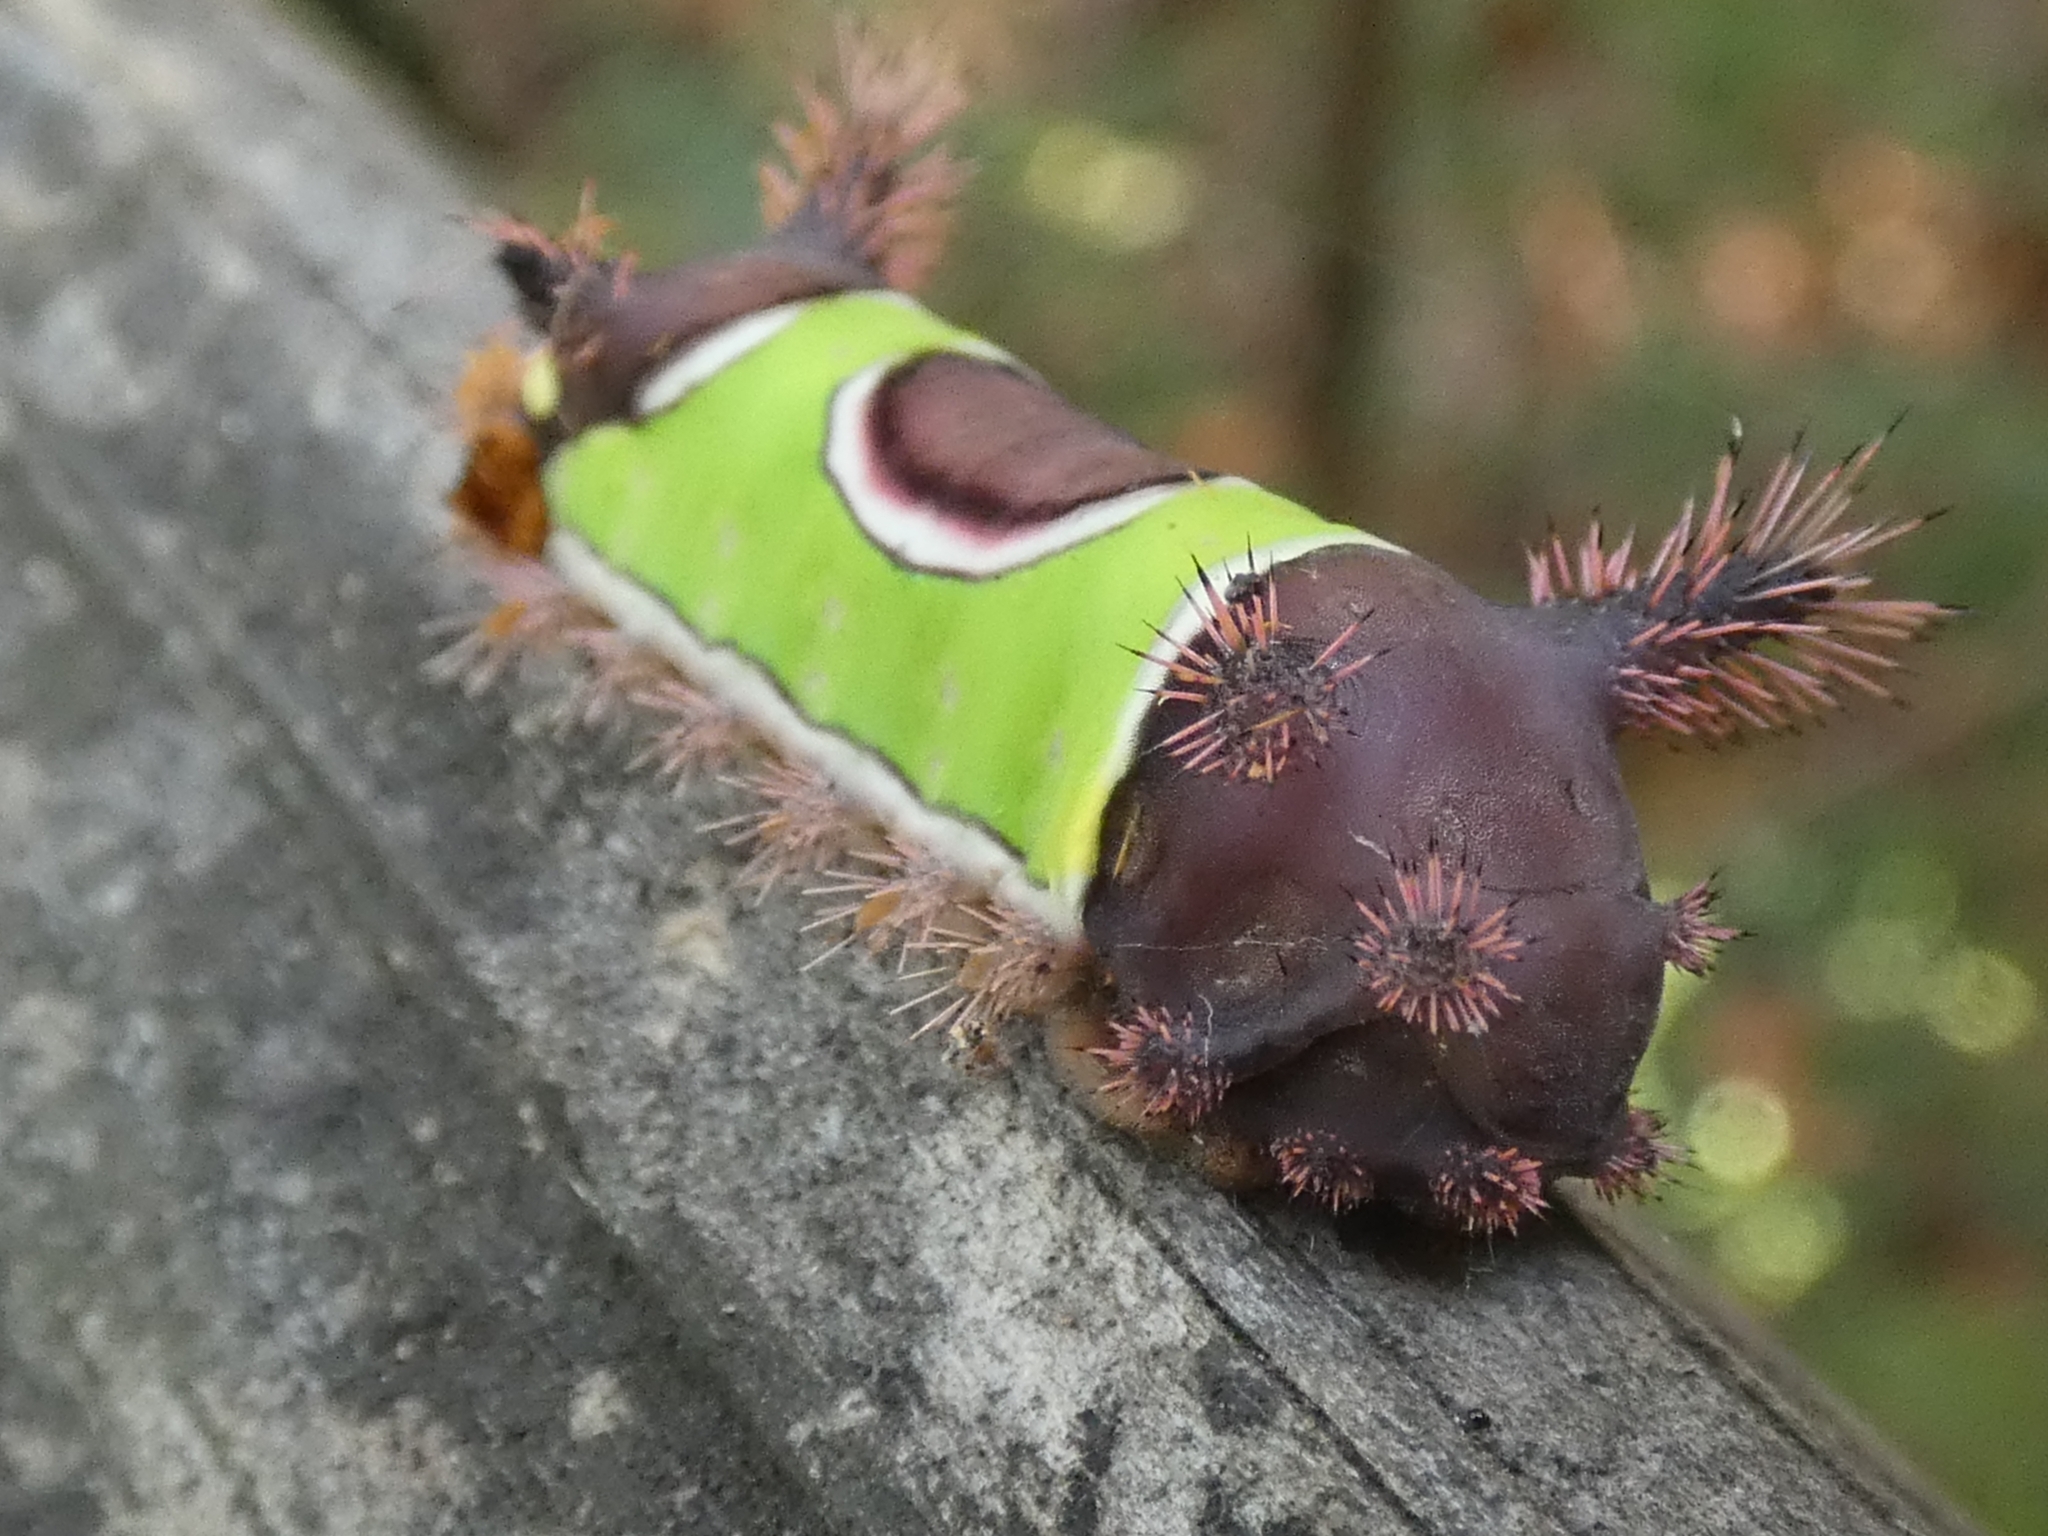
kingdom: Animalia
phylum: Arthropoda
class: Insecta
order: Lepidoptera
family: Limacodidae
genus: Acharia
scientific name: Acharia stimulea
